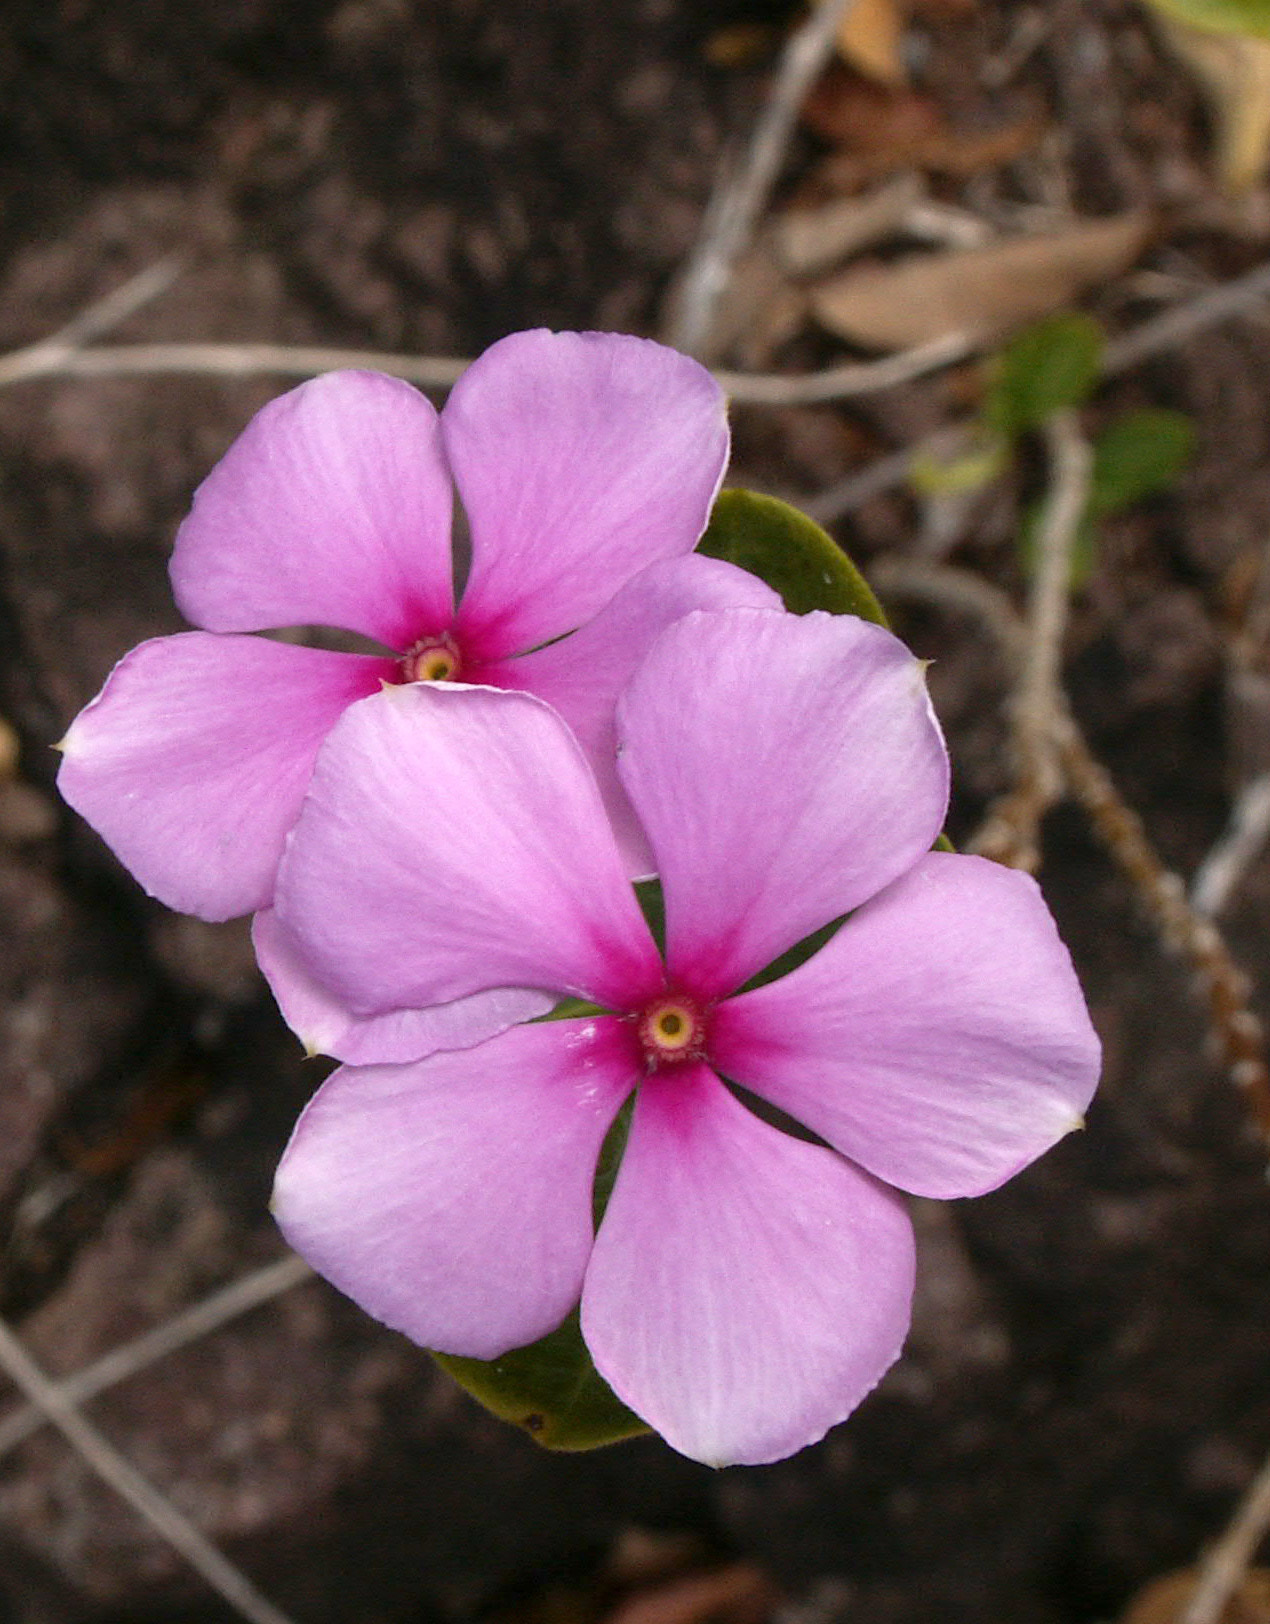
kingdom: Plantae
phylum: Tracheophyta
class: Magnoliopsida
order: Gentianales
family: Apocynaceae
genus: Catharanthus
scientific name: Catharanthus roseus
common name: Madagascar periwinkle
